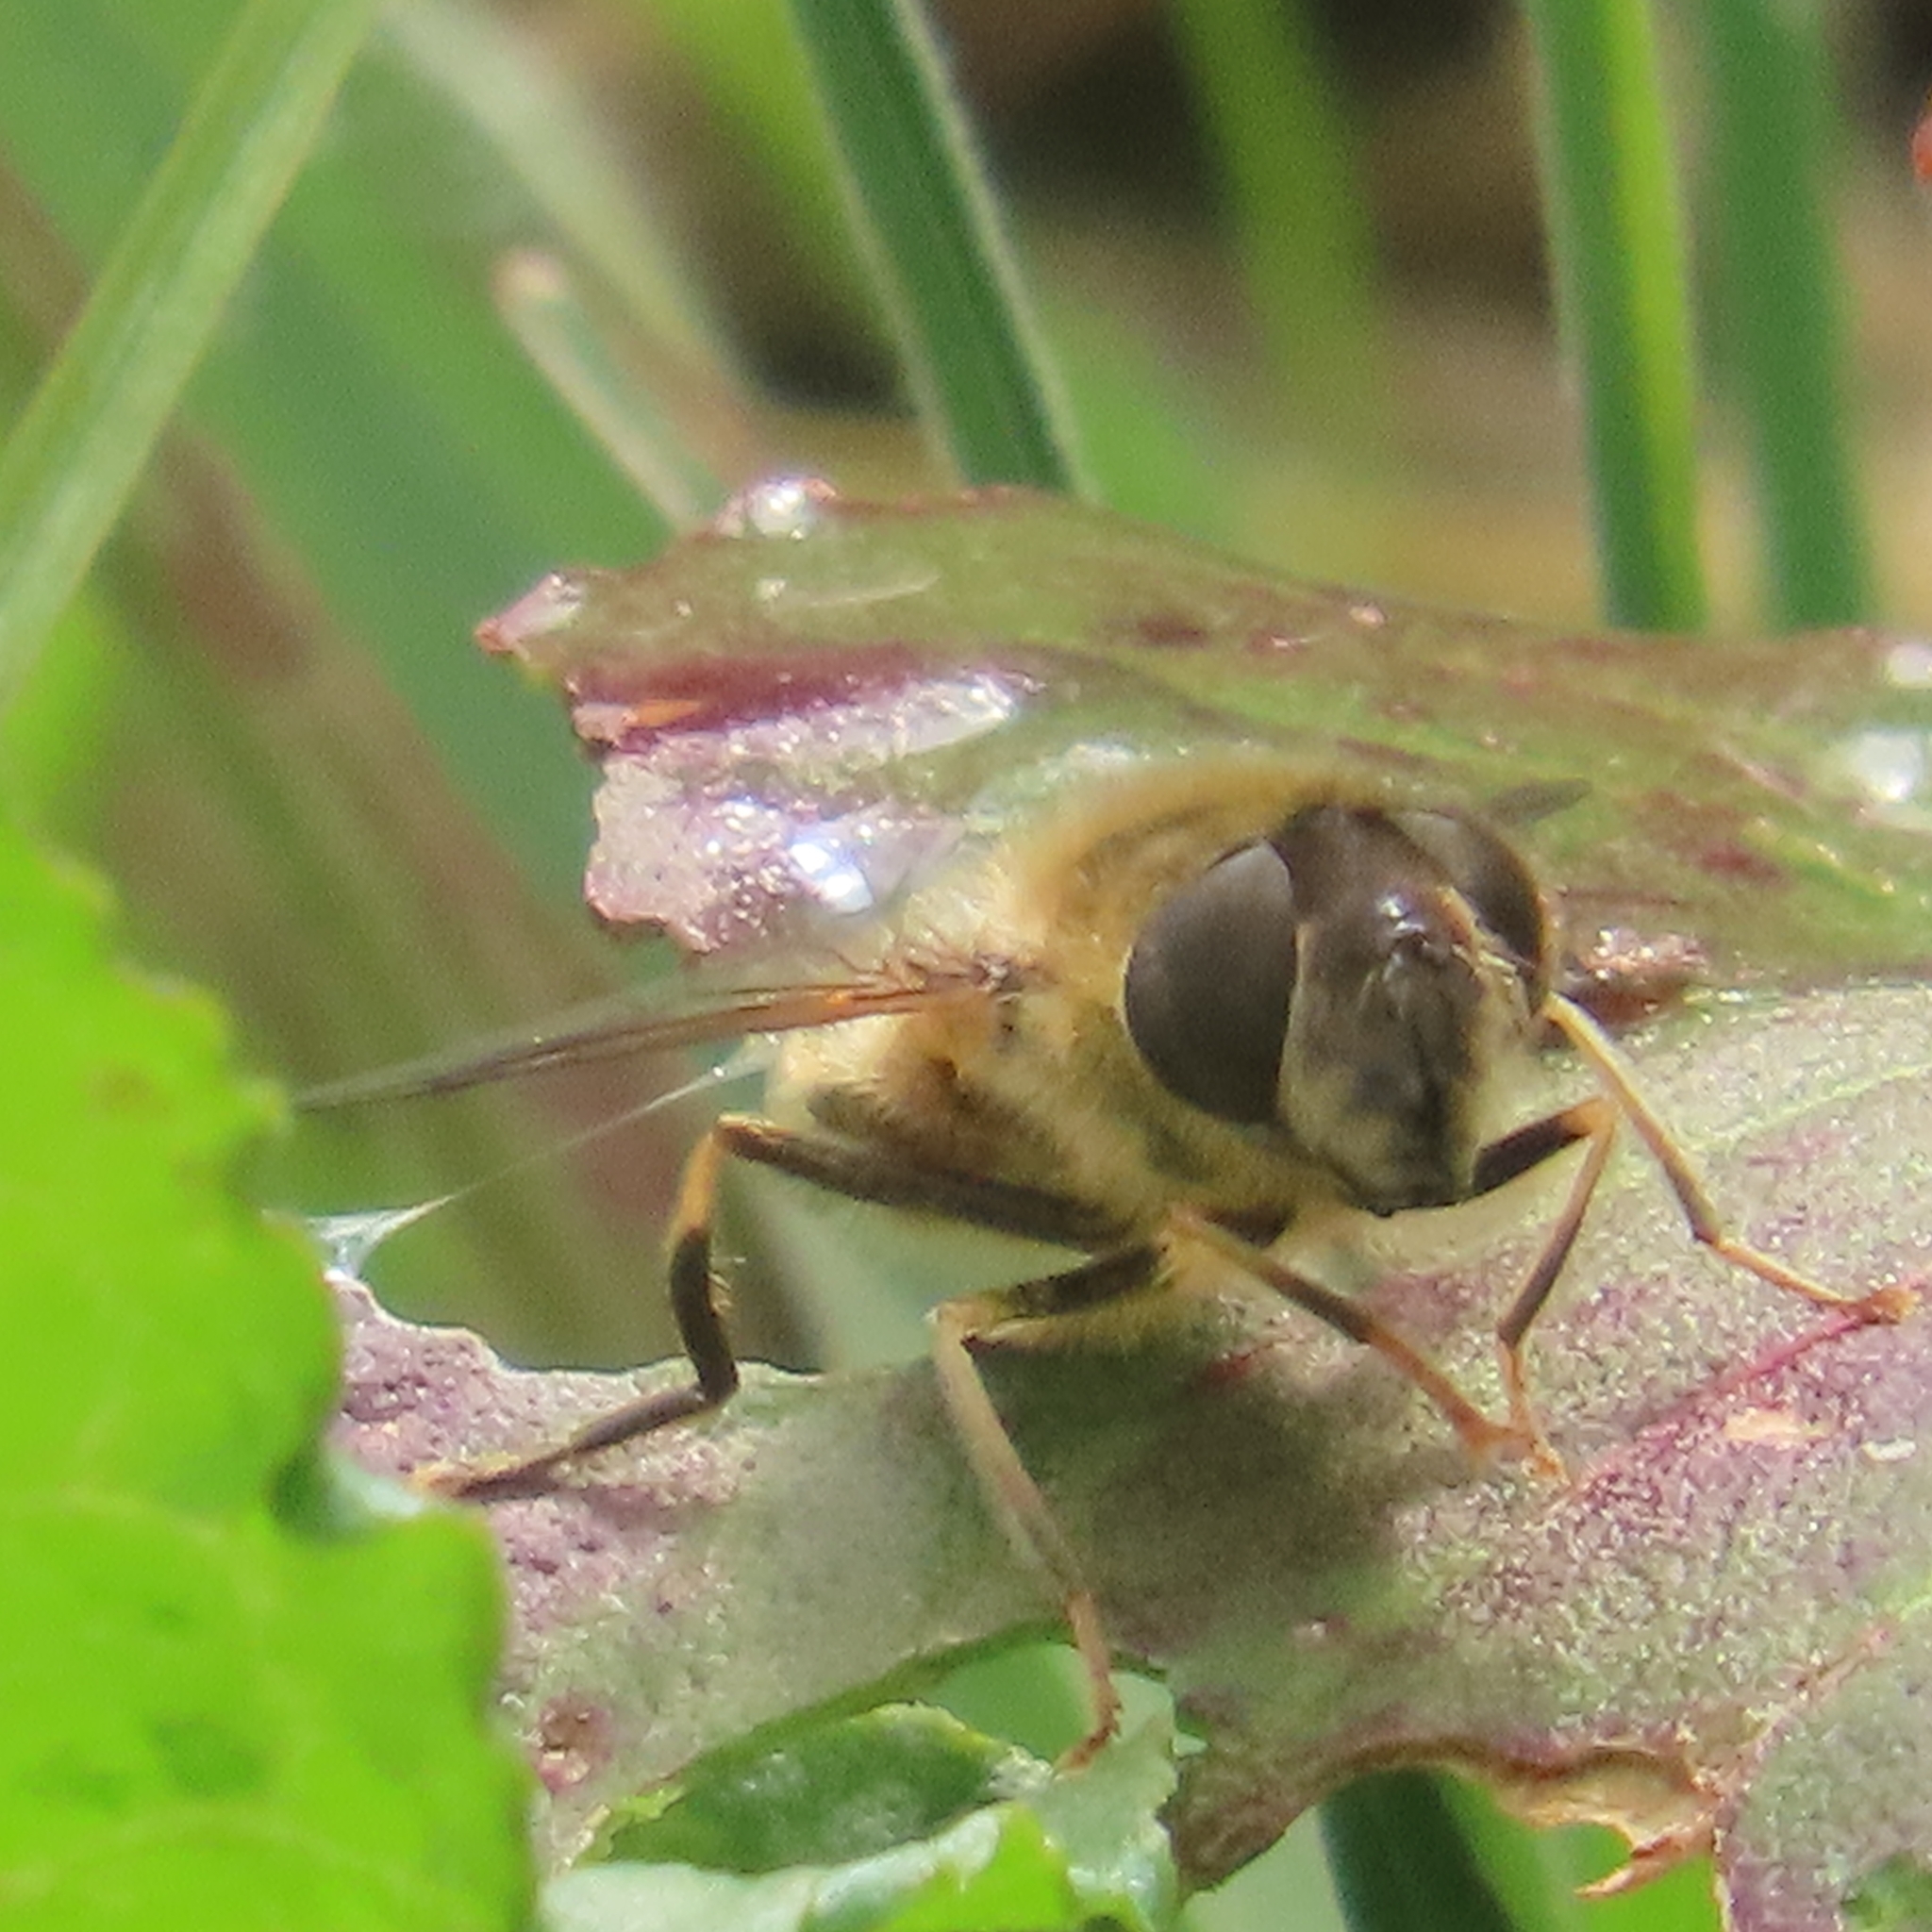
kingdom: Animalia
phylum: Arthropoda
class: Insecta
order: Diptera
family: Syrphidae
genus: Eristalis
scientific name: Eristalis pertinax
